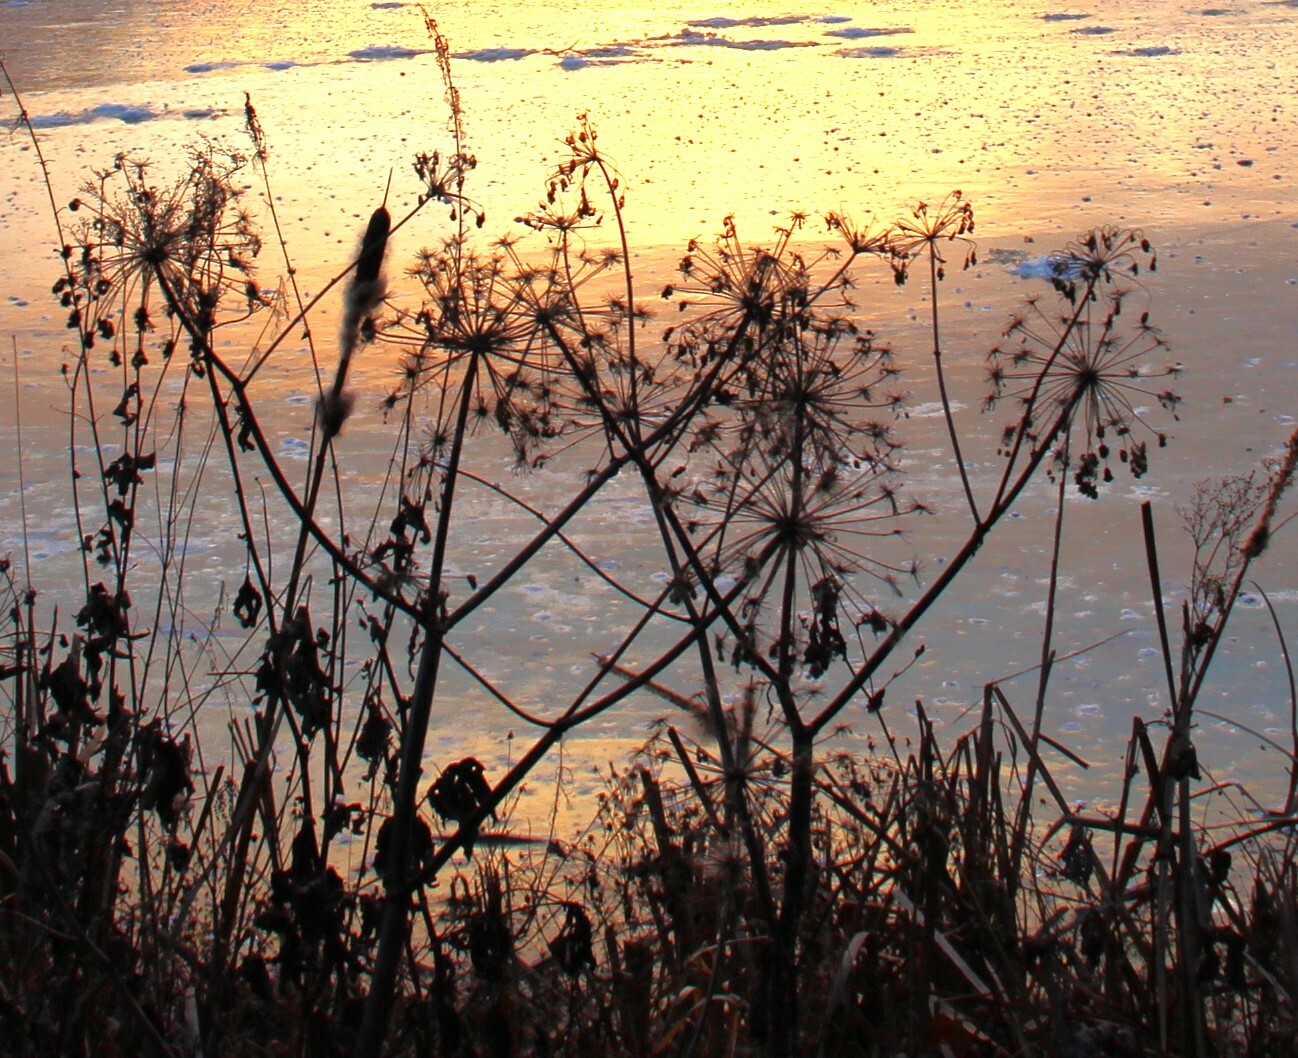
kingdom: Plantae
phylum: Tracheophyta
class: Magnoliopsida
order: Apiales
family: Apiaceae
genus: Angelica
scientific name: Angelica archangelica
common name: Garden angelica
